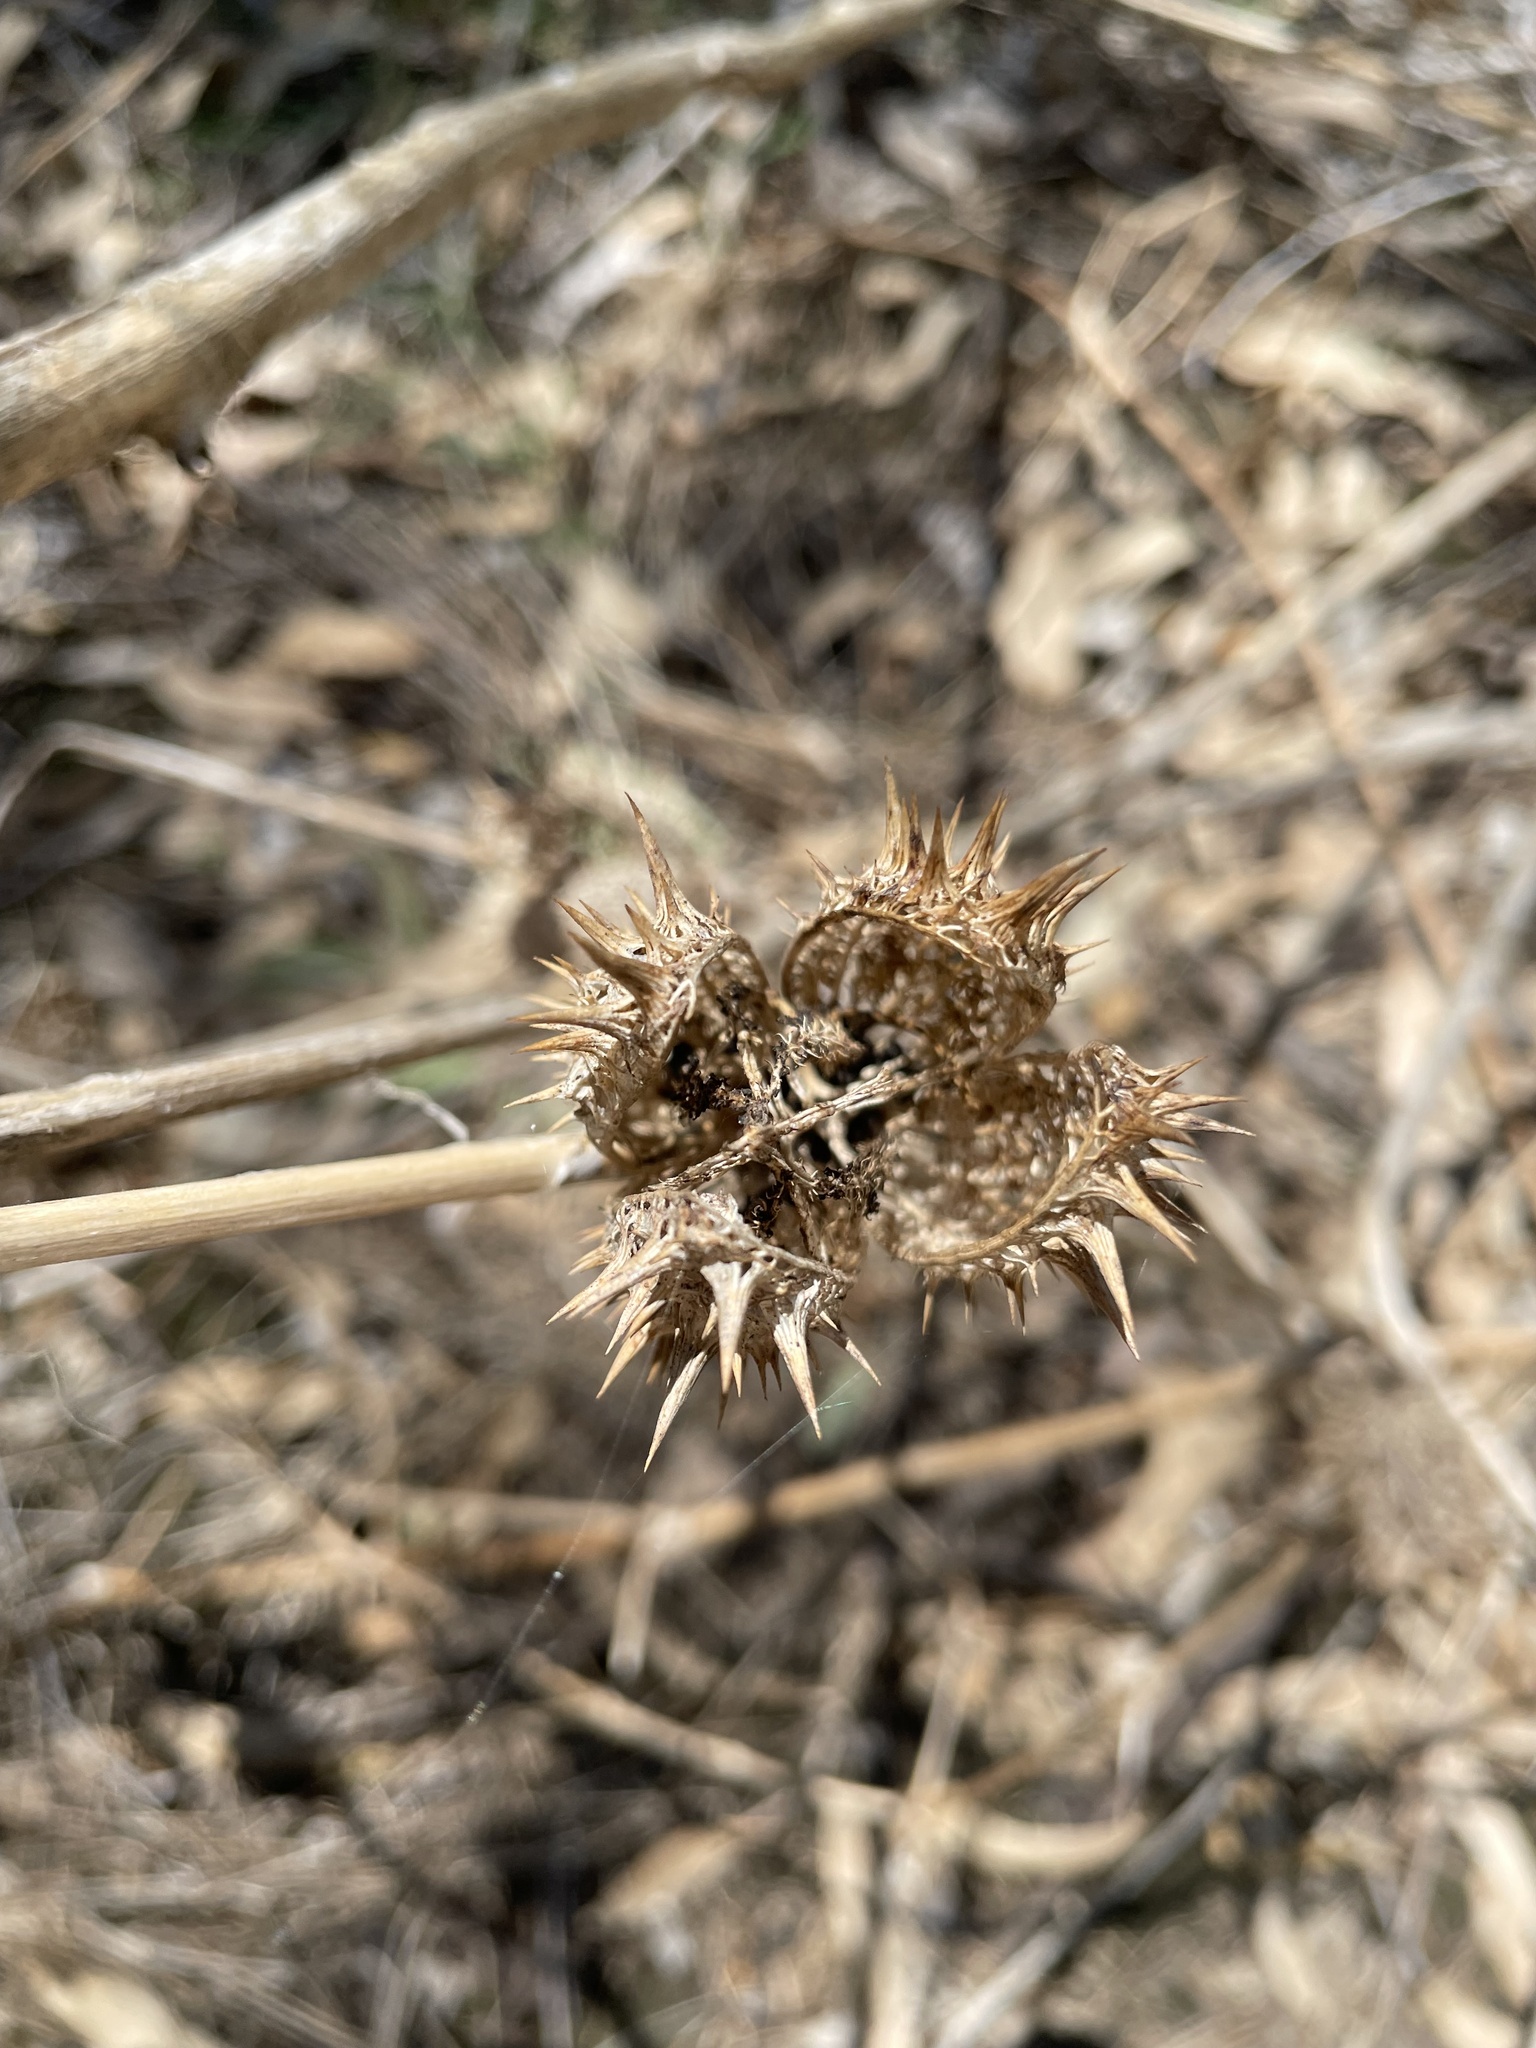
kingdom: Plantae
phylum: Tracheophyta
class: Magnoliopsida
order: Solanales
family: Solanaceae
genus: Datura
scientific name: Datura stramonium
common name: Thorn-apple
